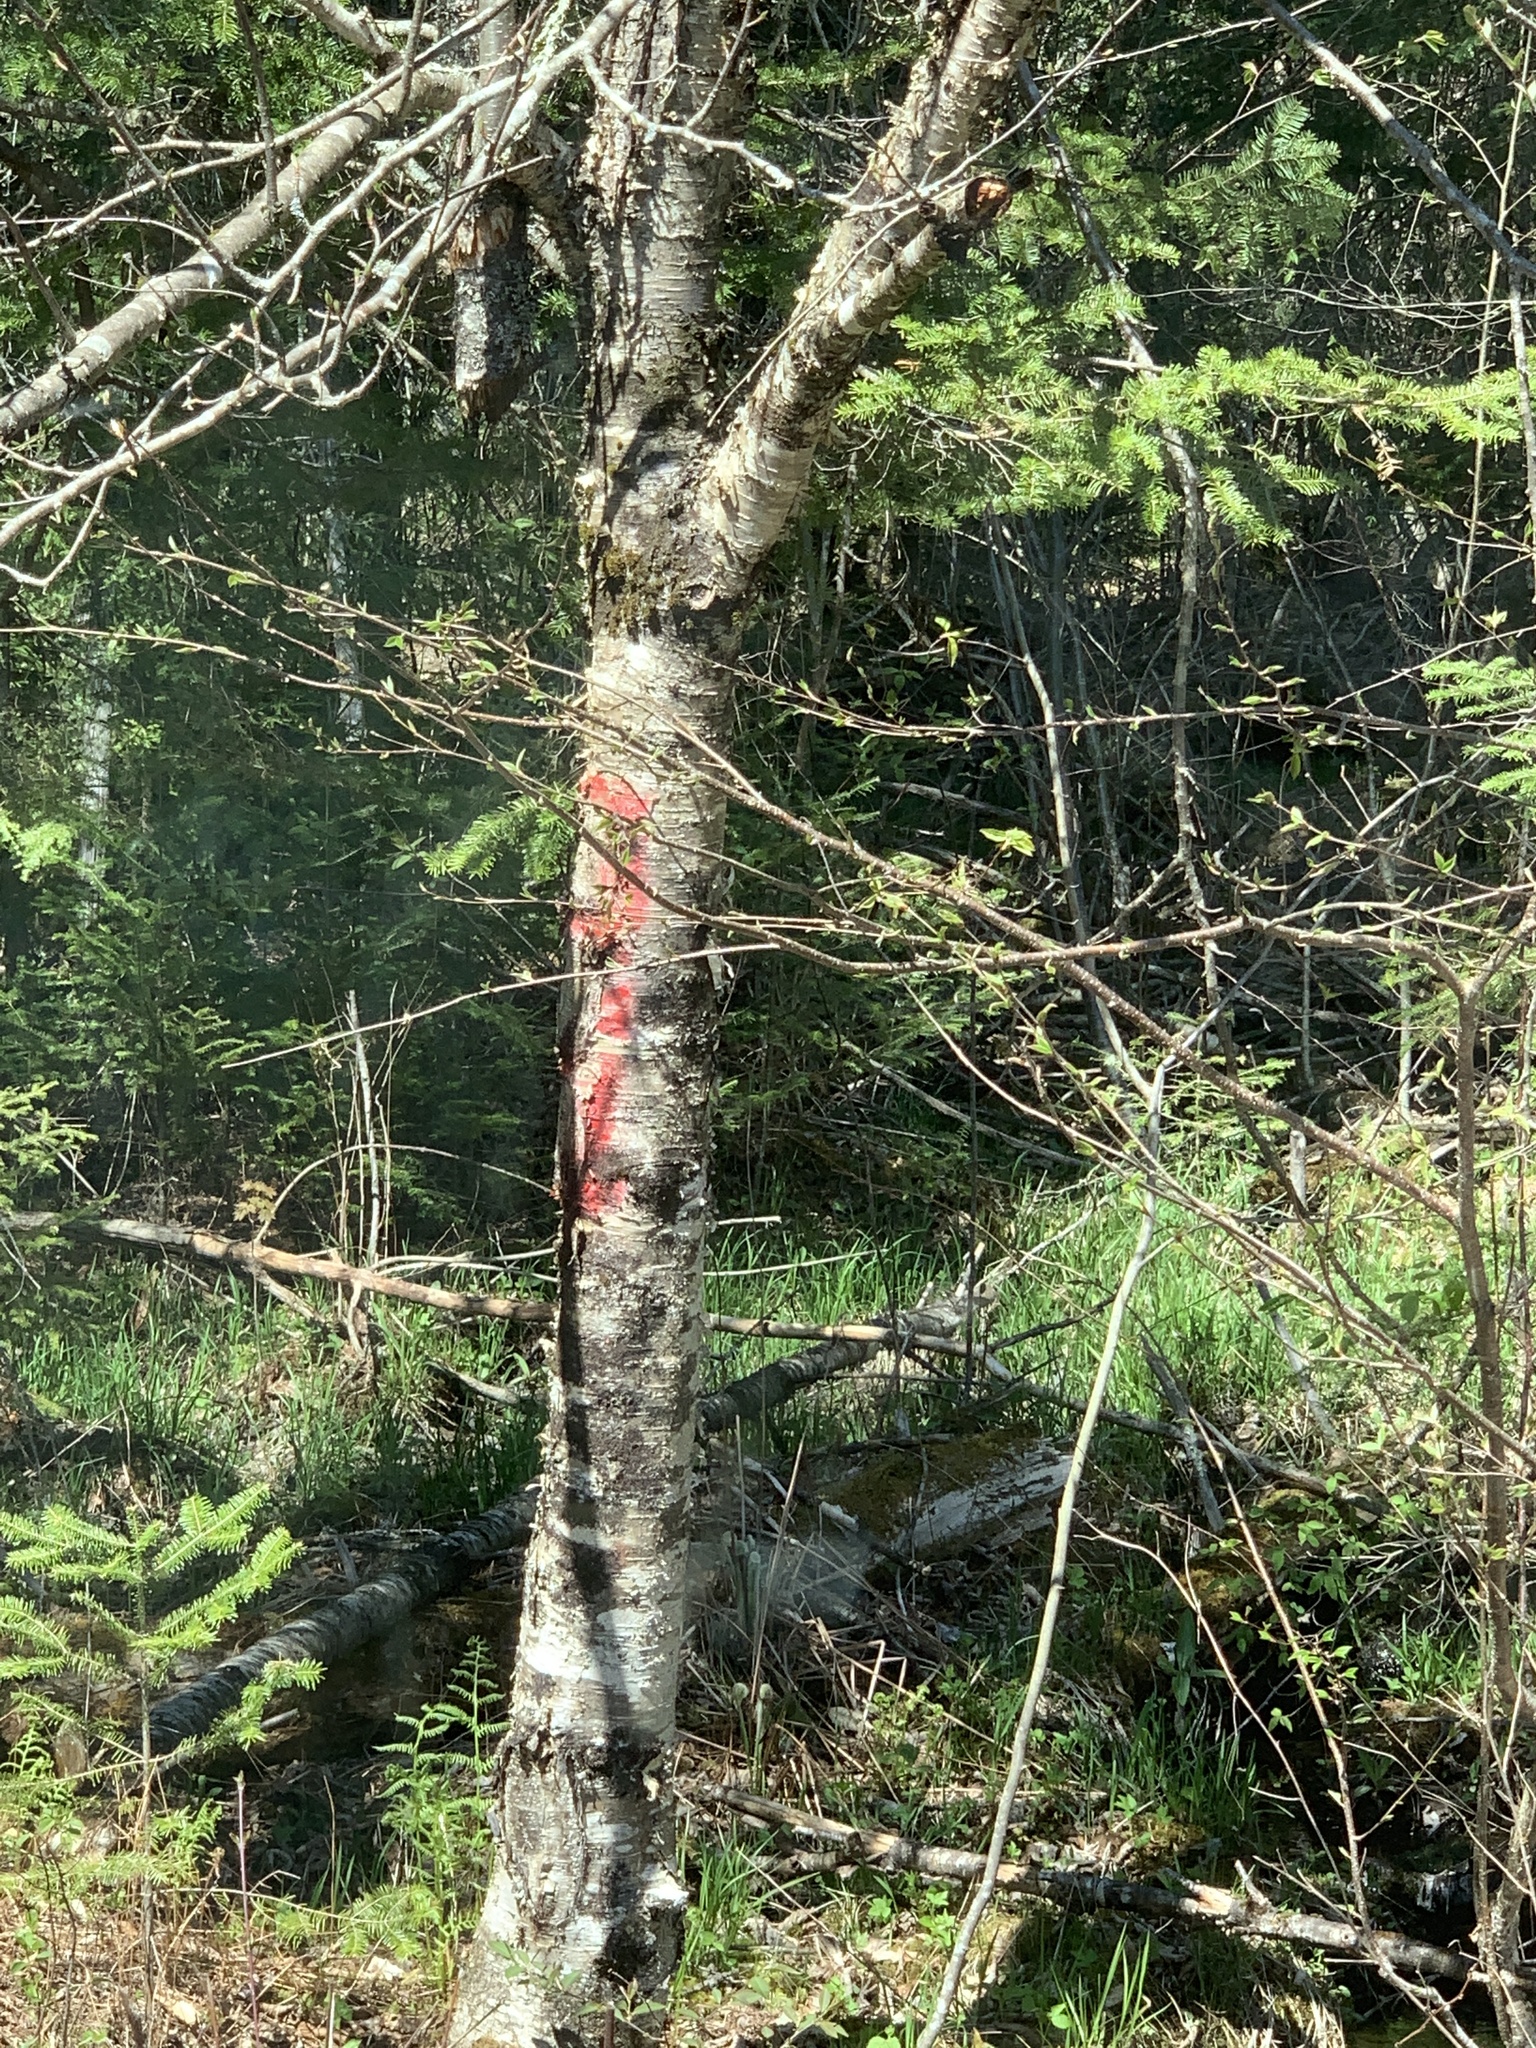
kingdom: Plantae
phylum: Tracheophyta
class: Magnoliopsida
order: Fagales
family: Betulaceae
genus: Betula
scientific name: Betula alleghaniensis
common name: Yellow birch
